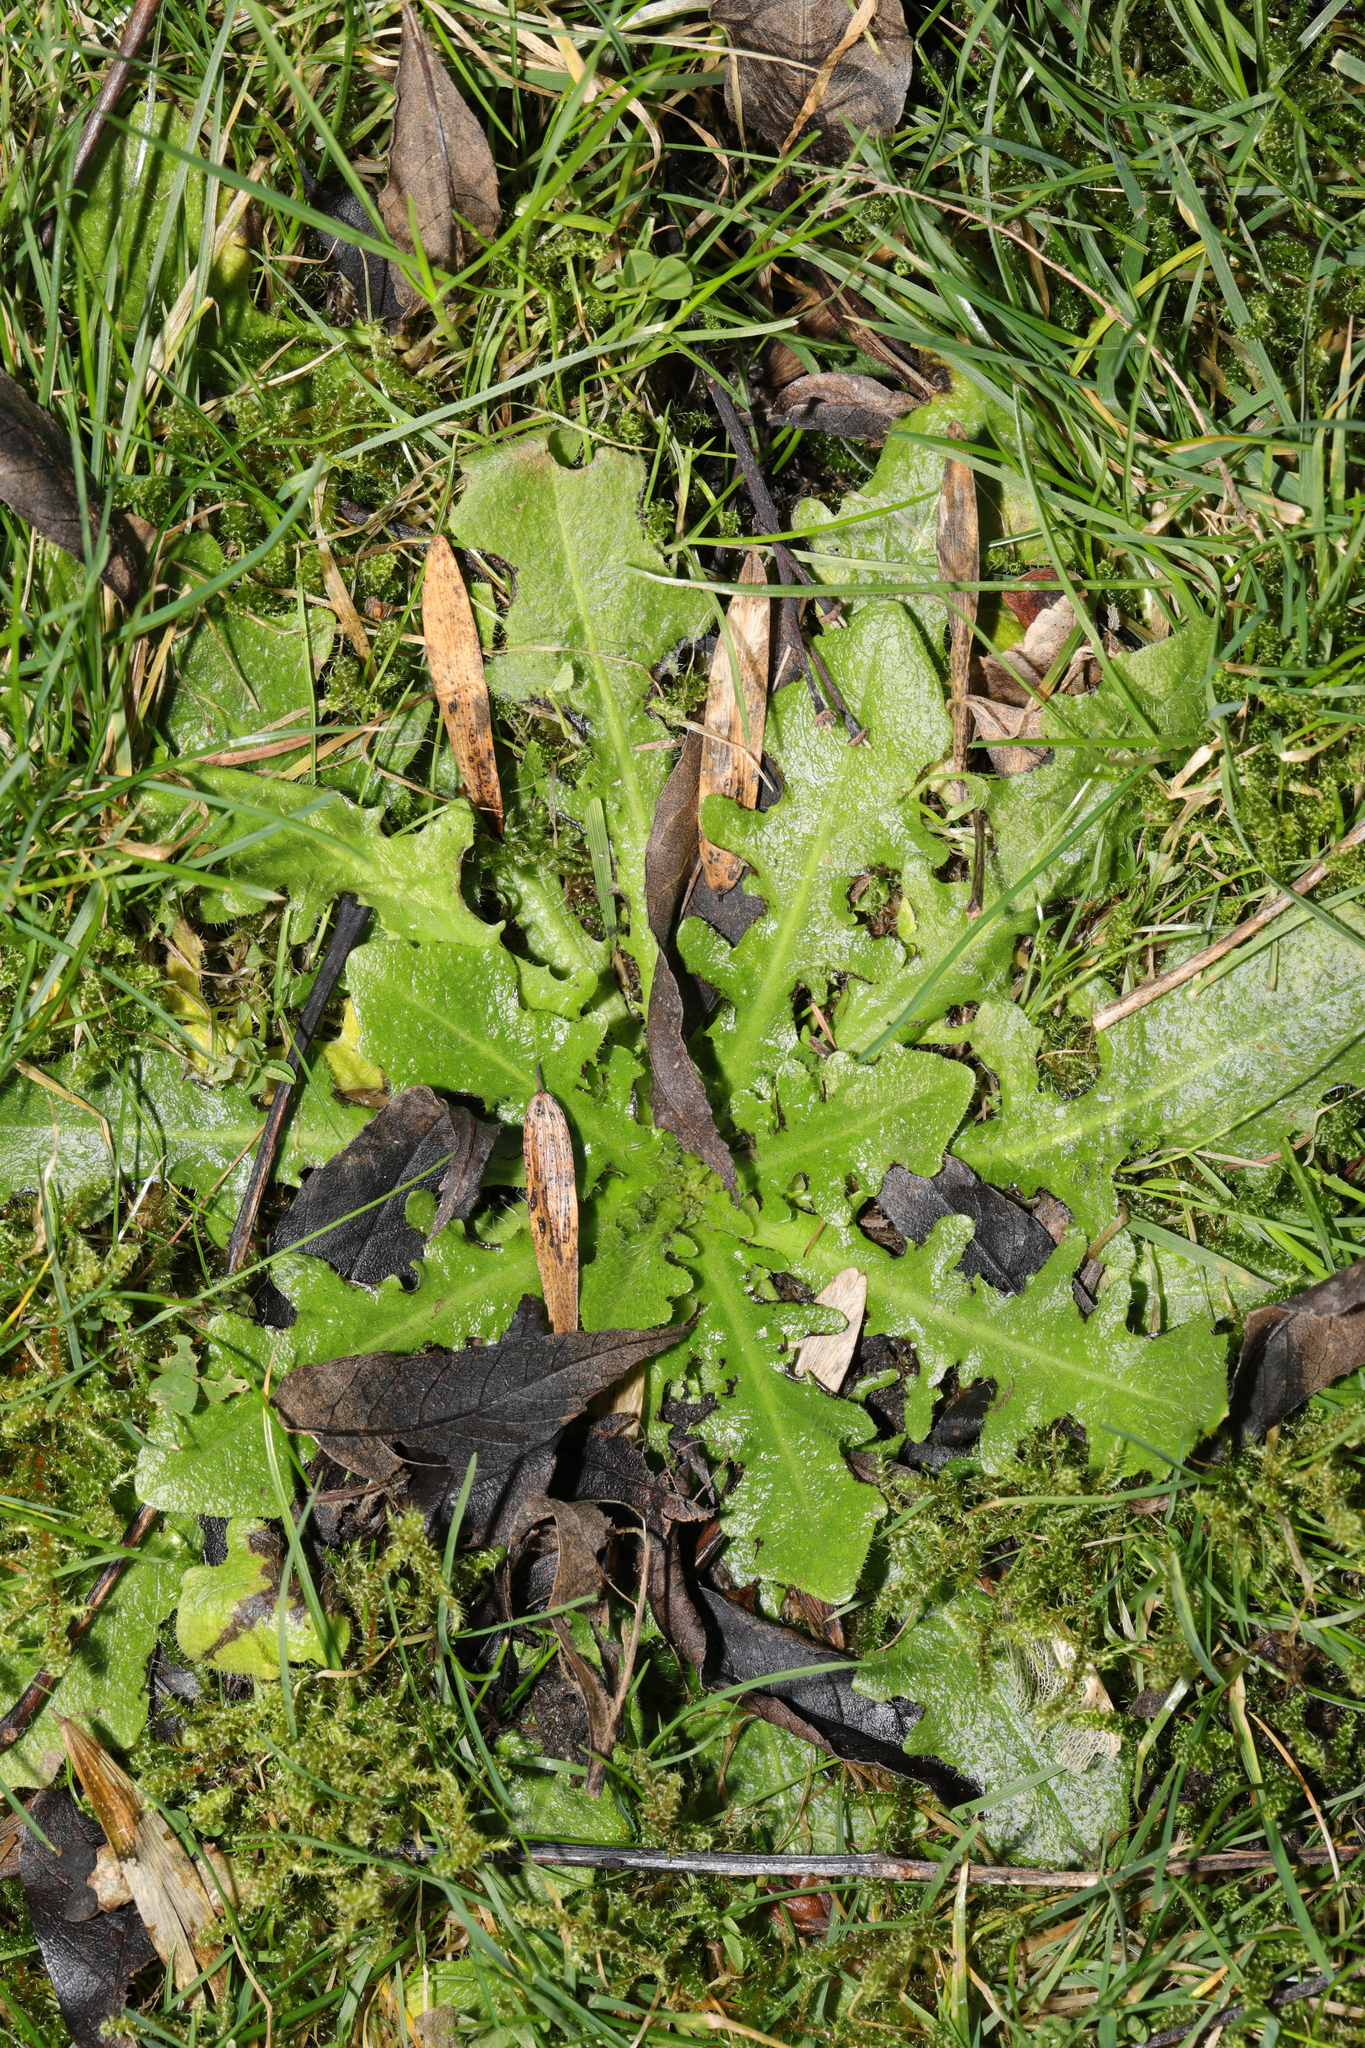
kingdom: Plantae
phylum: Tracheophyta
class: Magnoliopsida
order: Asterales
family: Asteraceae
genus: Hypochaeris
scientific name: Hypochaeris radicata
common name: Flatweed
